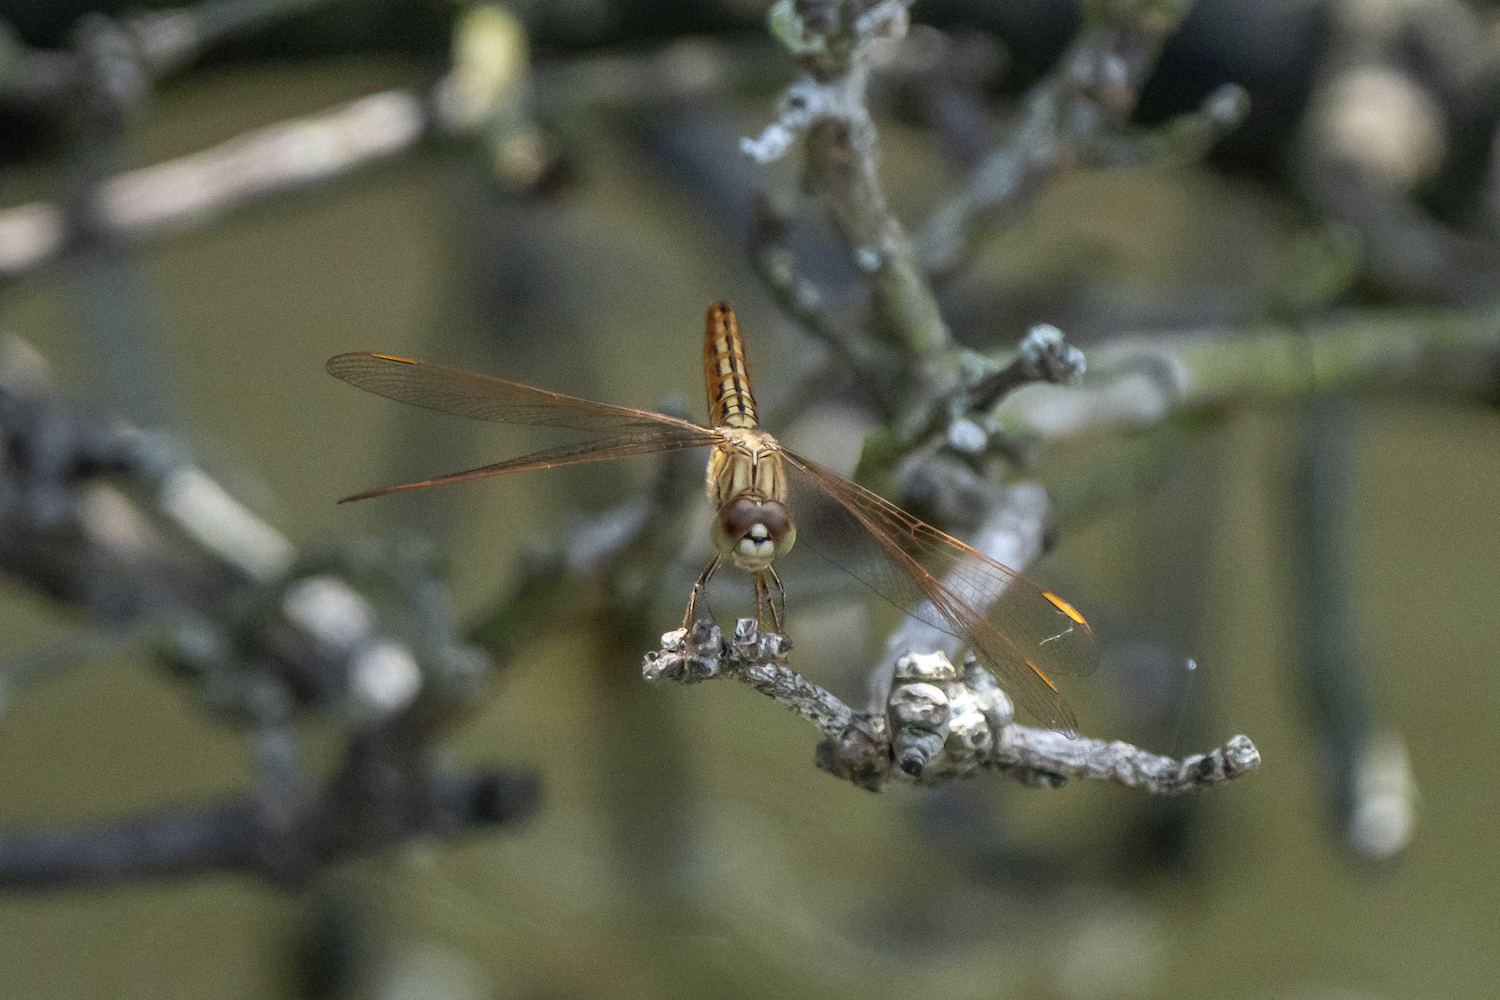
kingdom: Animalia
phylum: Arthropoda
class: Insecta
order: Odonata
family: Libellulidae
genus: Brachythemis
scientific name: Brachythemis contaminata
